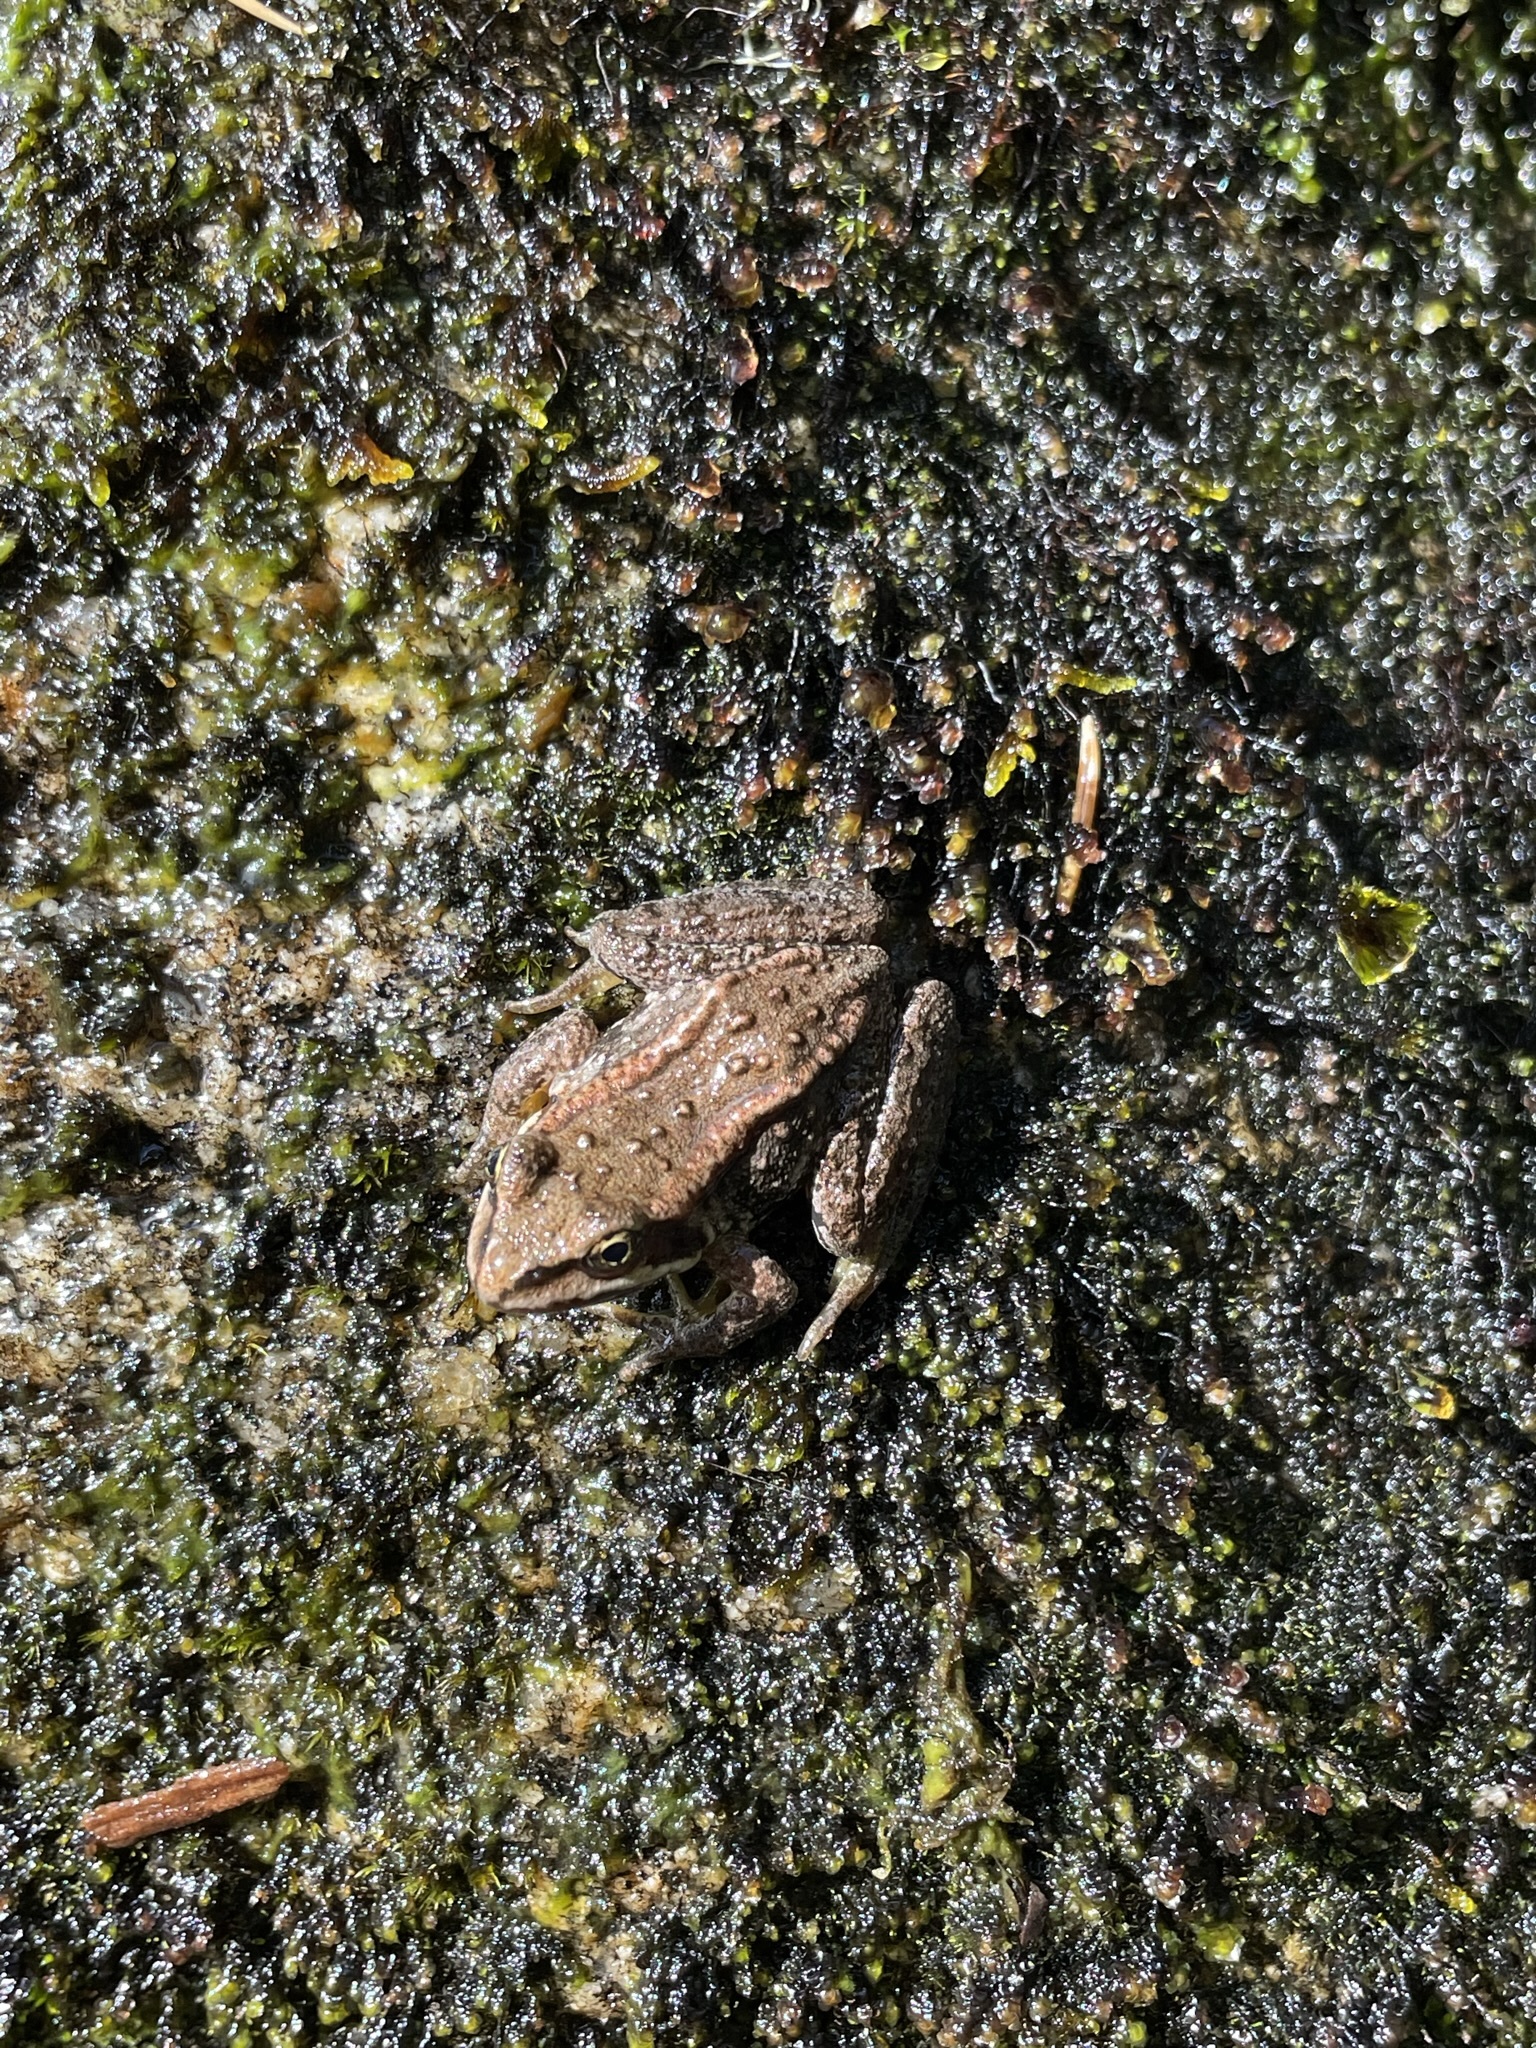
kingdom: Animalia
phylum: Chordata
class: Amphibia
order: Anura
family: Ranidae
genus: Rana
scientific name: Rana cascadae
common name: Cascades frog
